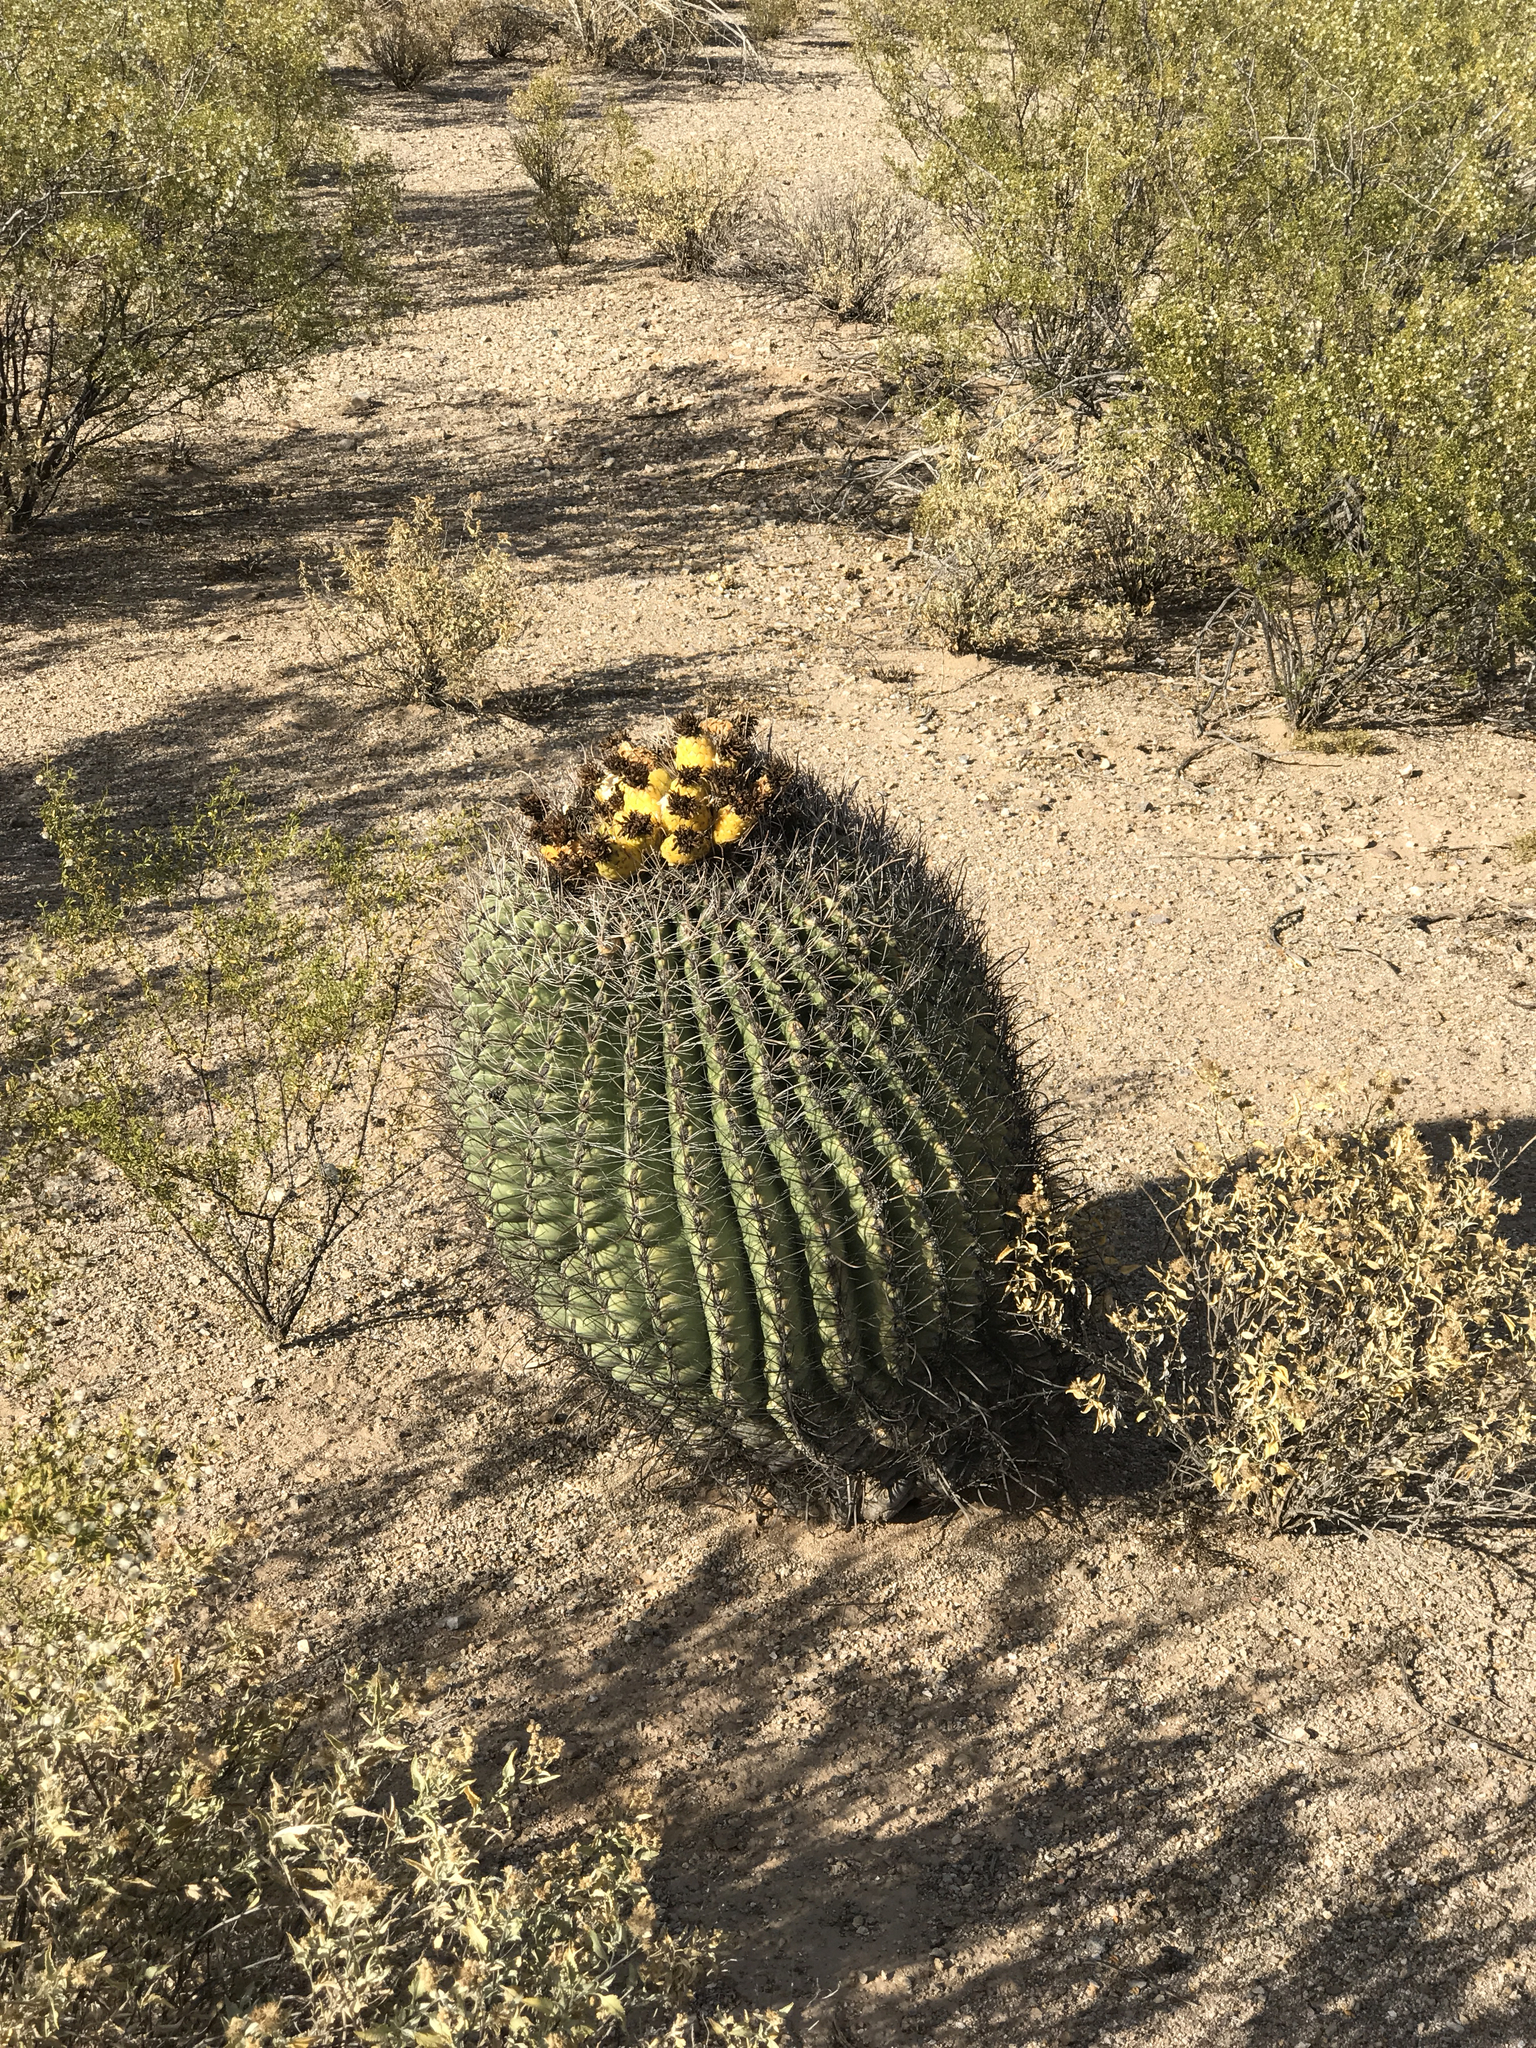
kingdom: Plantae
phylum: Tracheophyta
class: Magnoliopsida
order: Caryophyllales
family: Cactaceae
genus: Ferocactus
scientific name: Ferocactus wislizeni
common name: Candy barrel cactus
